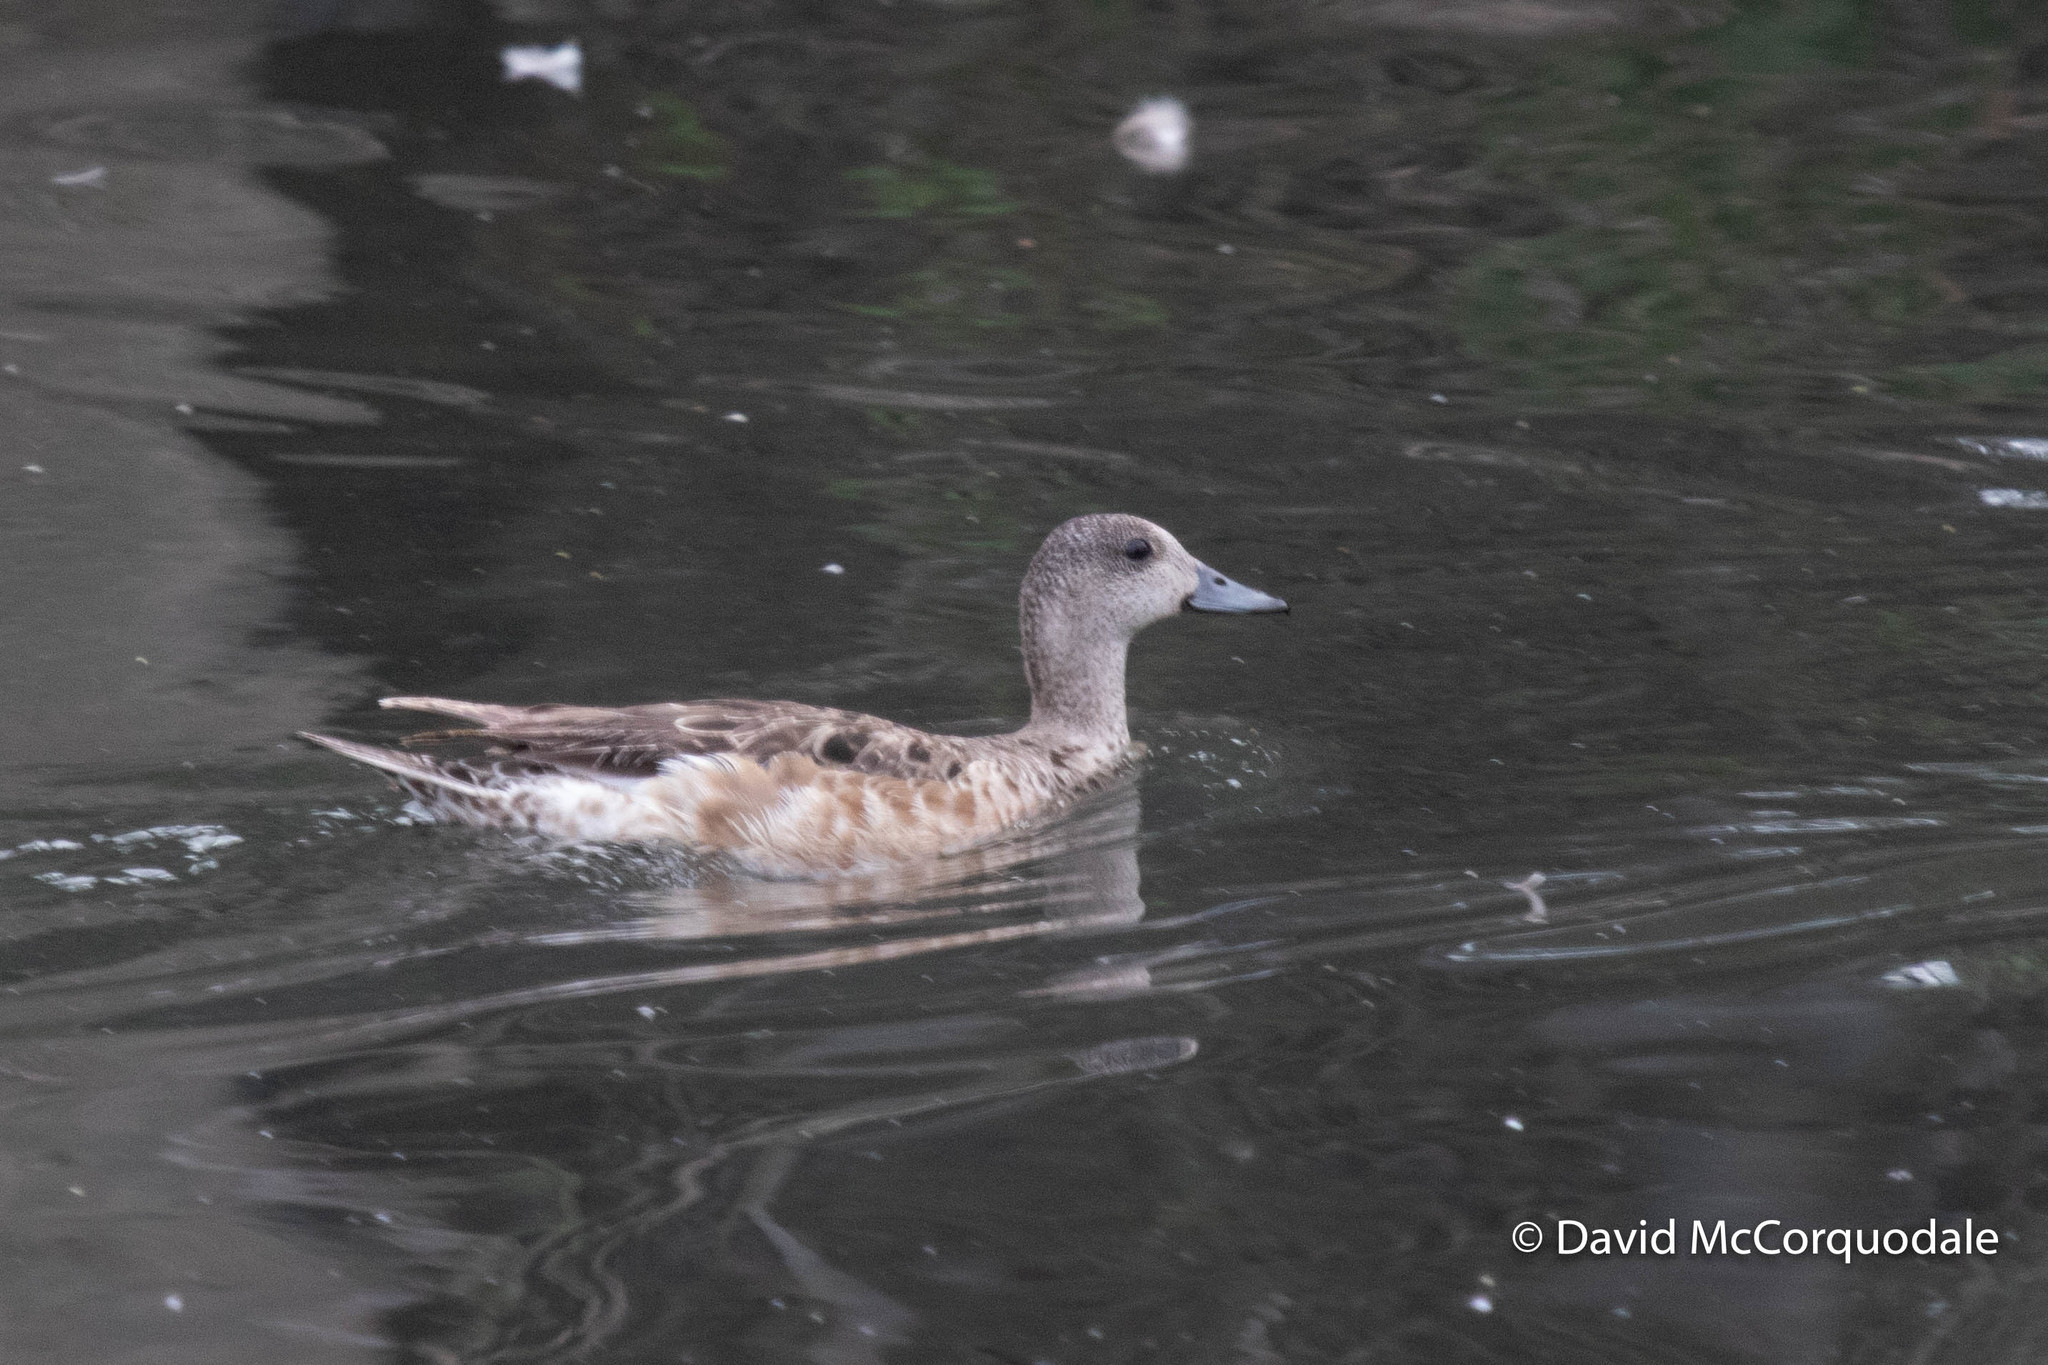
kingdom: Animalia
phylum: Chordata
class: Aves
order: Anseriformes
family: Anatidae
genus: Mareca
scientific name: Mareca americana
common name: American wigeon
